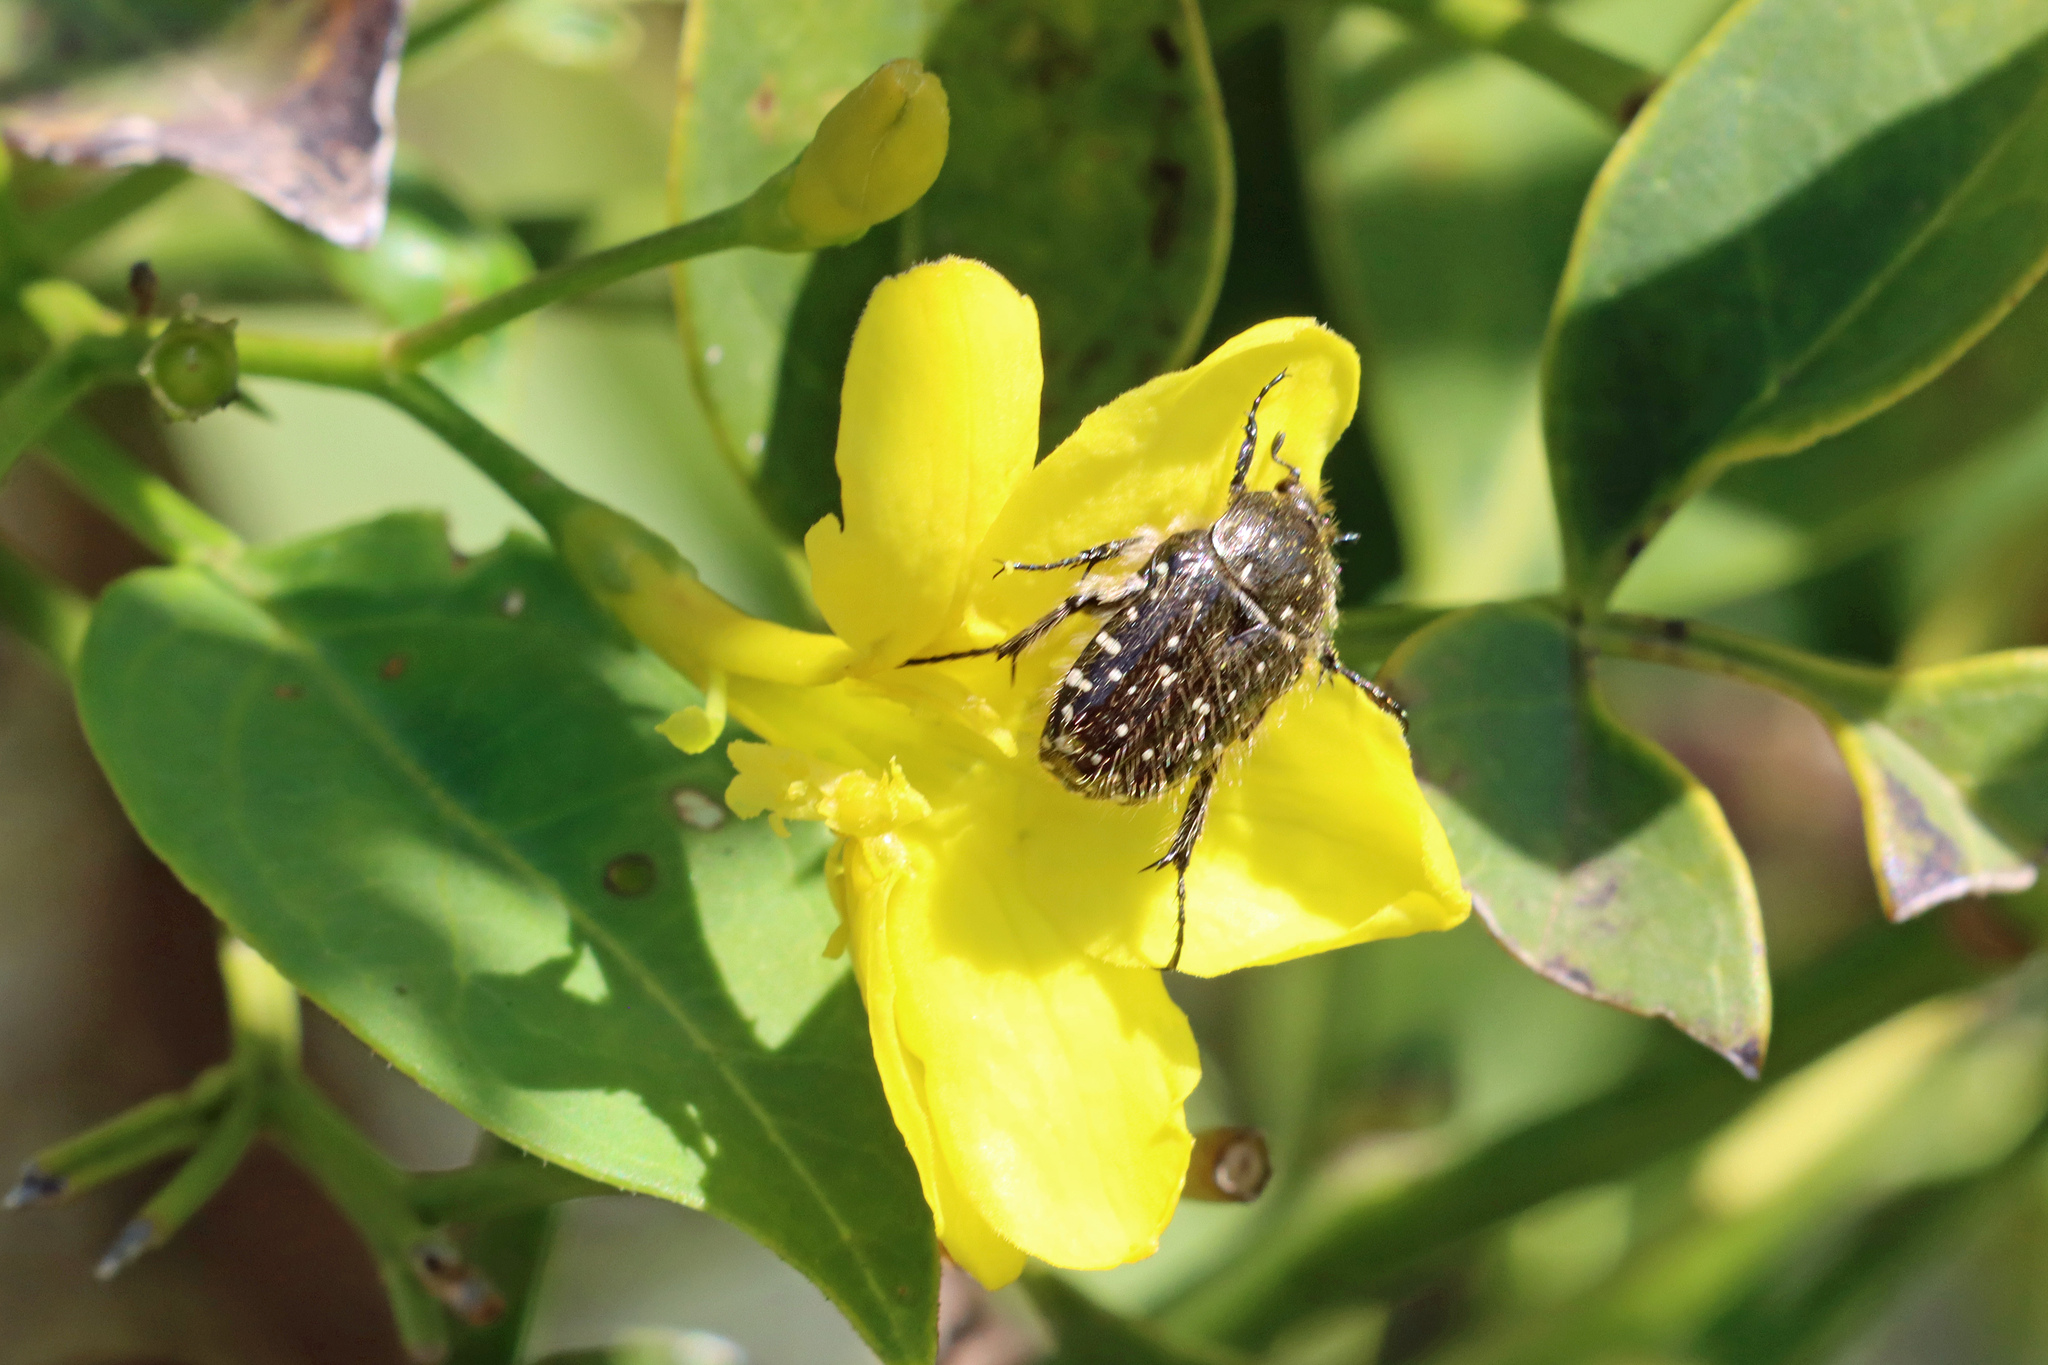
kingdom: Animalia
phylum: Arthropoda
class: Insecta
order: Coleoptera
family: Scarabaeidae
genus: Oxythyrea
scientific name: Oxythyrea funesta
